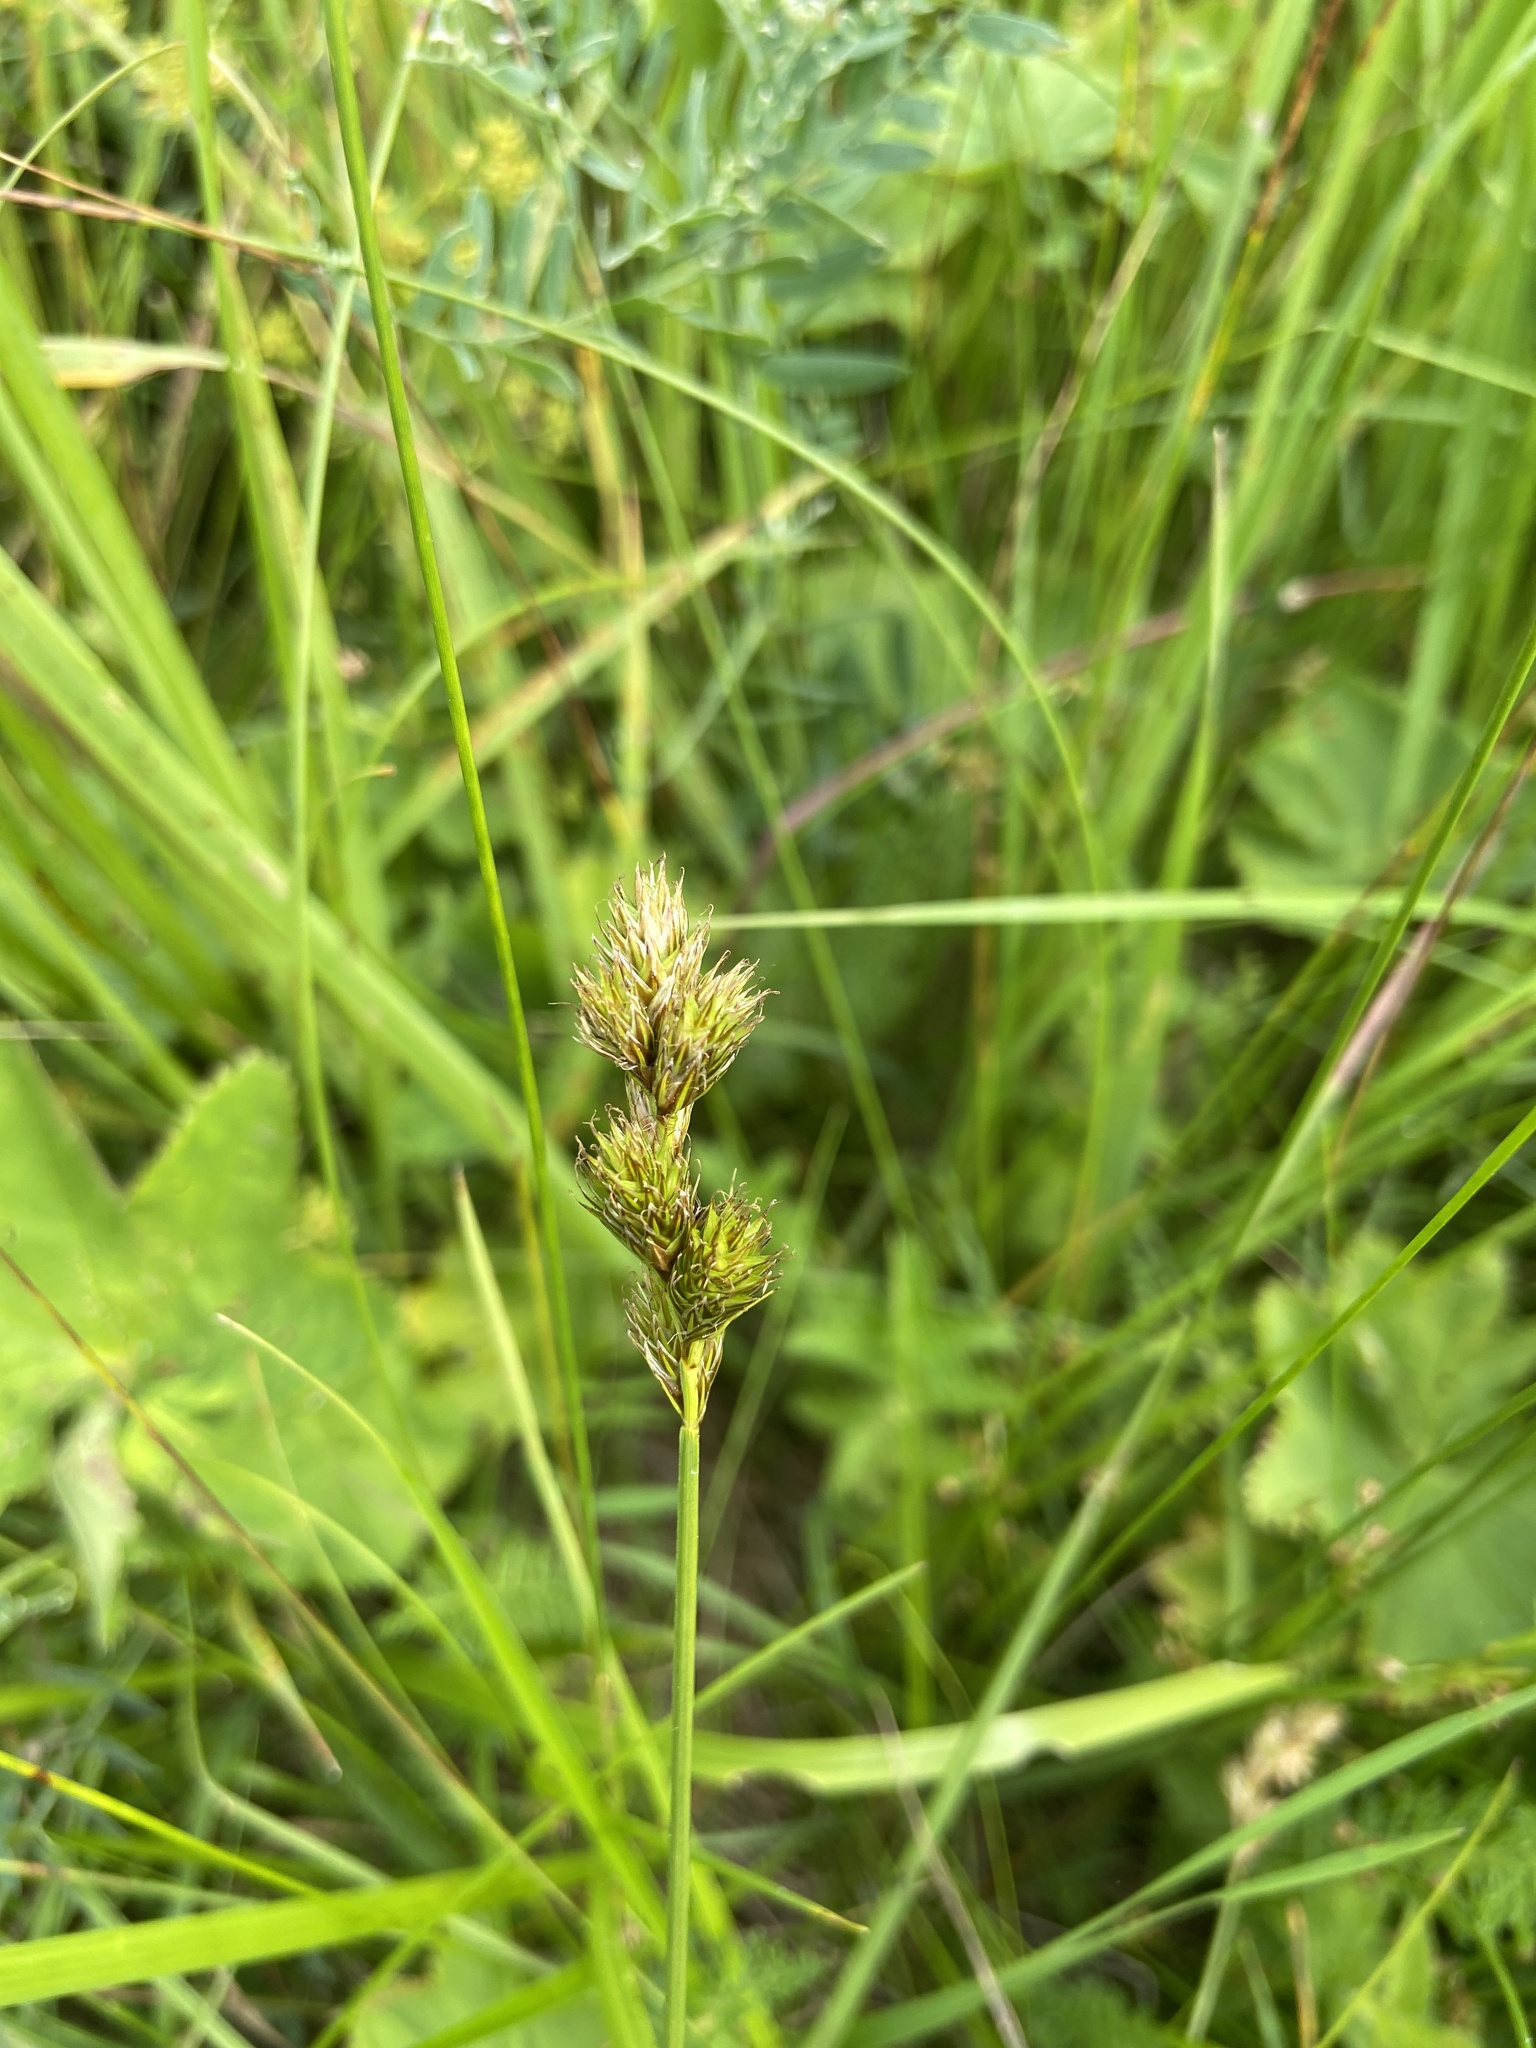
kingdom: Plantae
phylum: Tracheophyta
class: Liliopsida
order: Poales
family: Cyperaceae
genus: Carex
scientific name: Carex leporina
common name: Oval sedge
